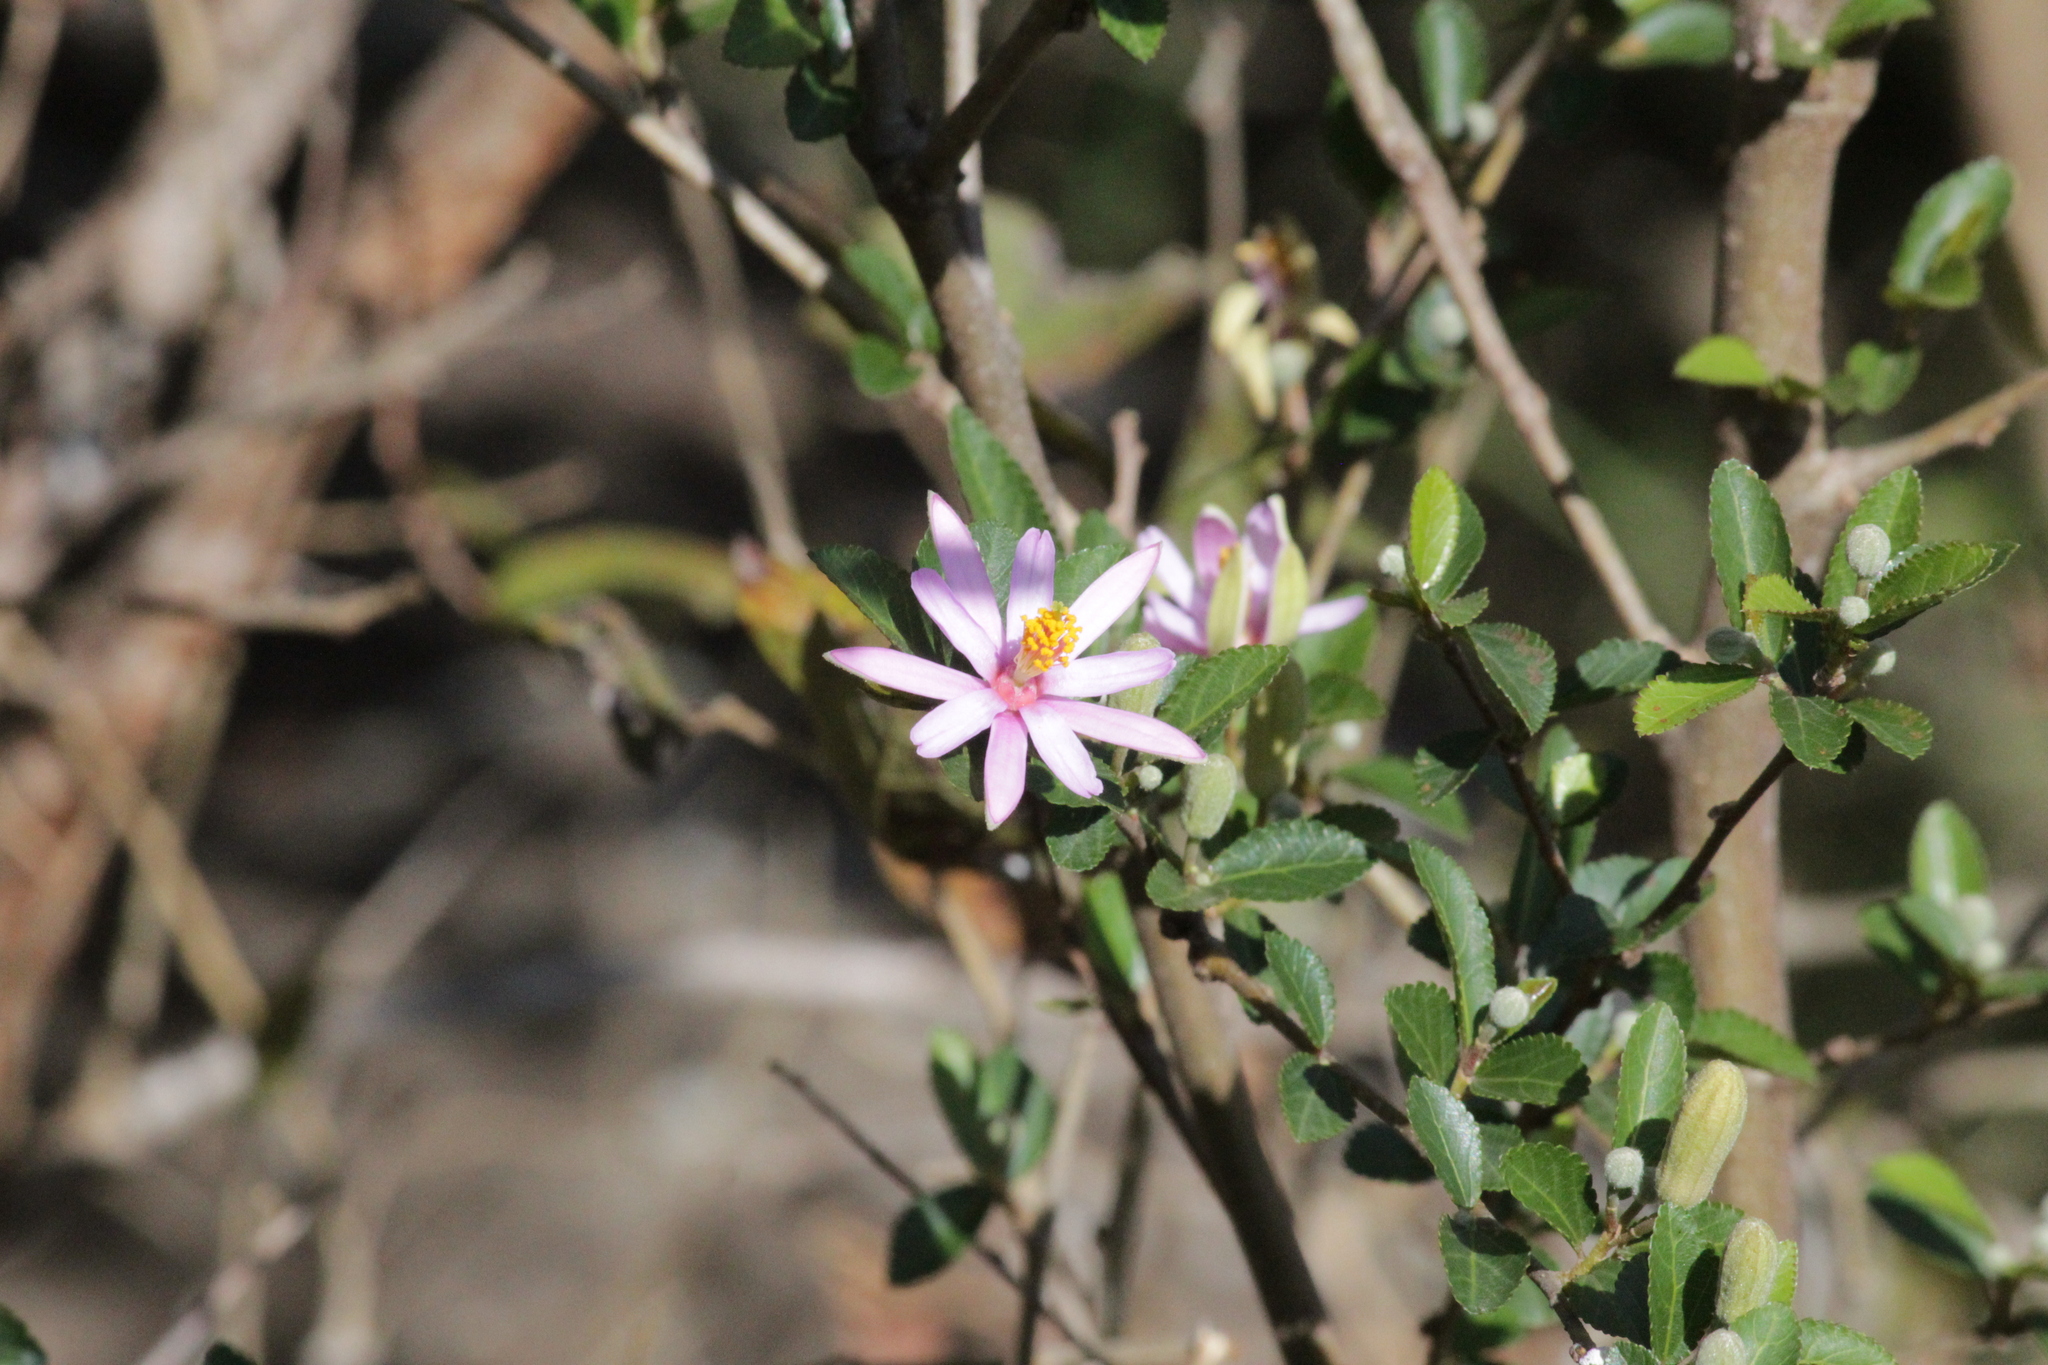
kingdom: Plantae
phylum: Tracheophyta
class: Magnoliopsida
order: Malvales
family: Malvaceae
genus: Grewia
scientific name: Grewia occidentalis
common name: Crossberry
